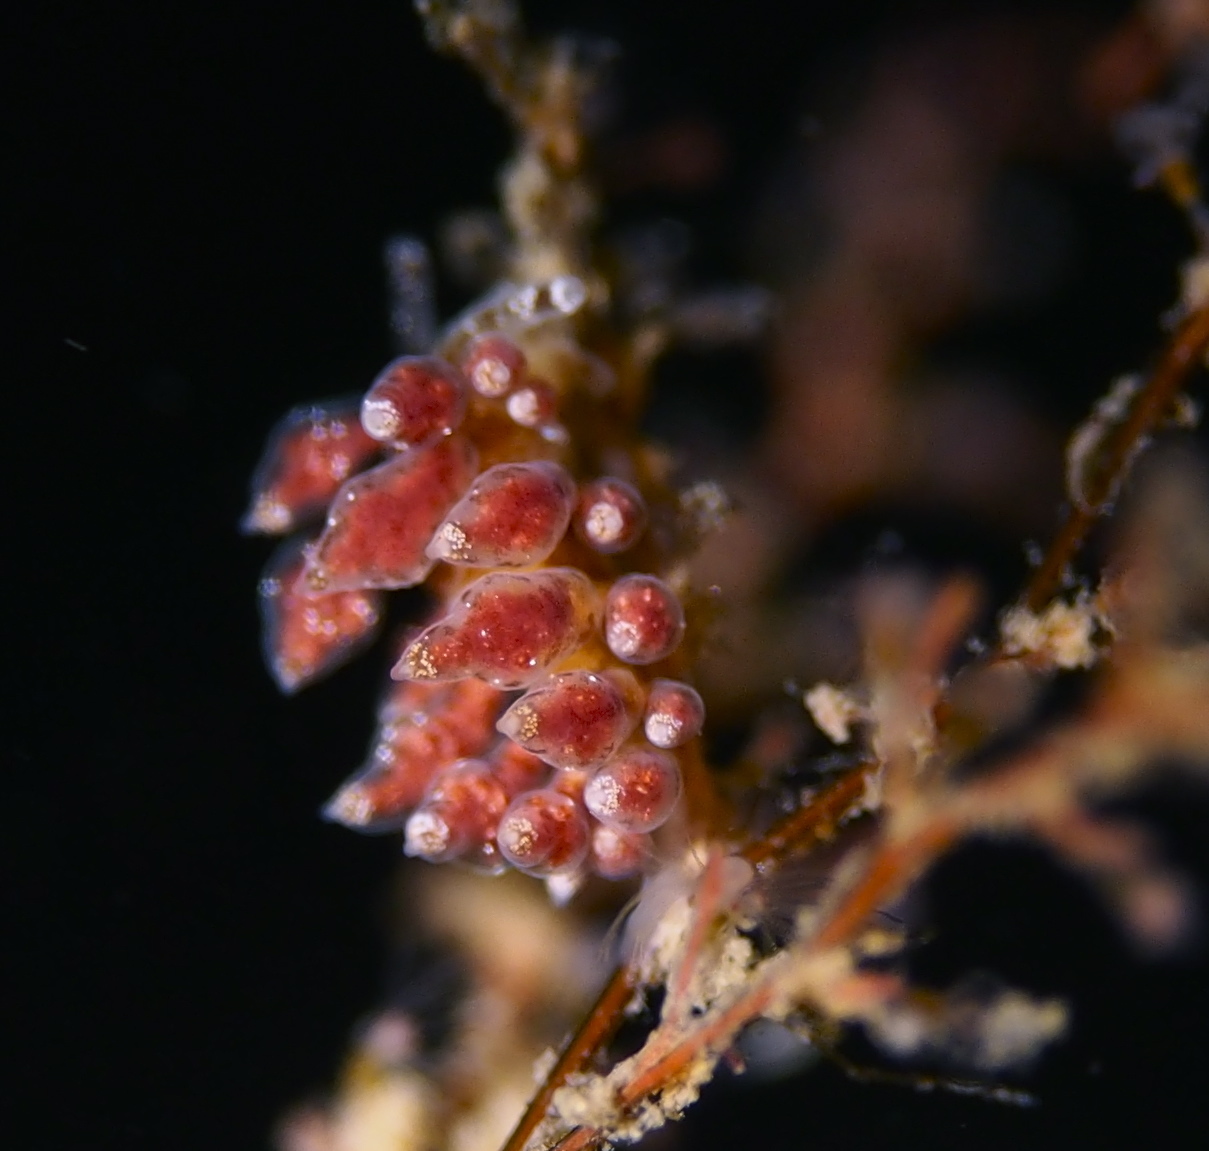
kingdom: Animalia
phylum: Mollusca
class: Gastropoda
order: Nudibranchia
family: Eubranchidae
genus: Eubranchus
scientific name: Eubranchus exiguus
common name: Balloon aeolis
